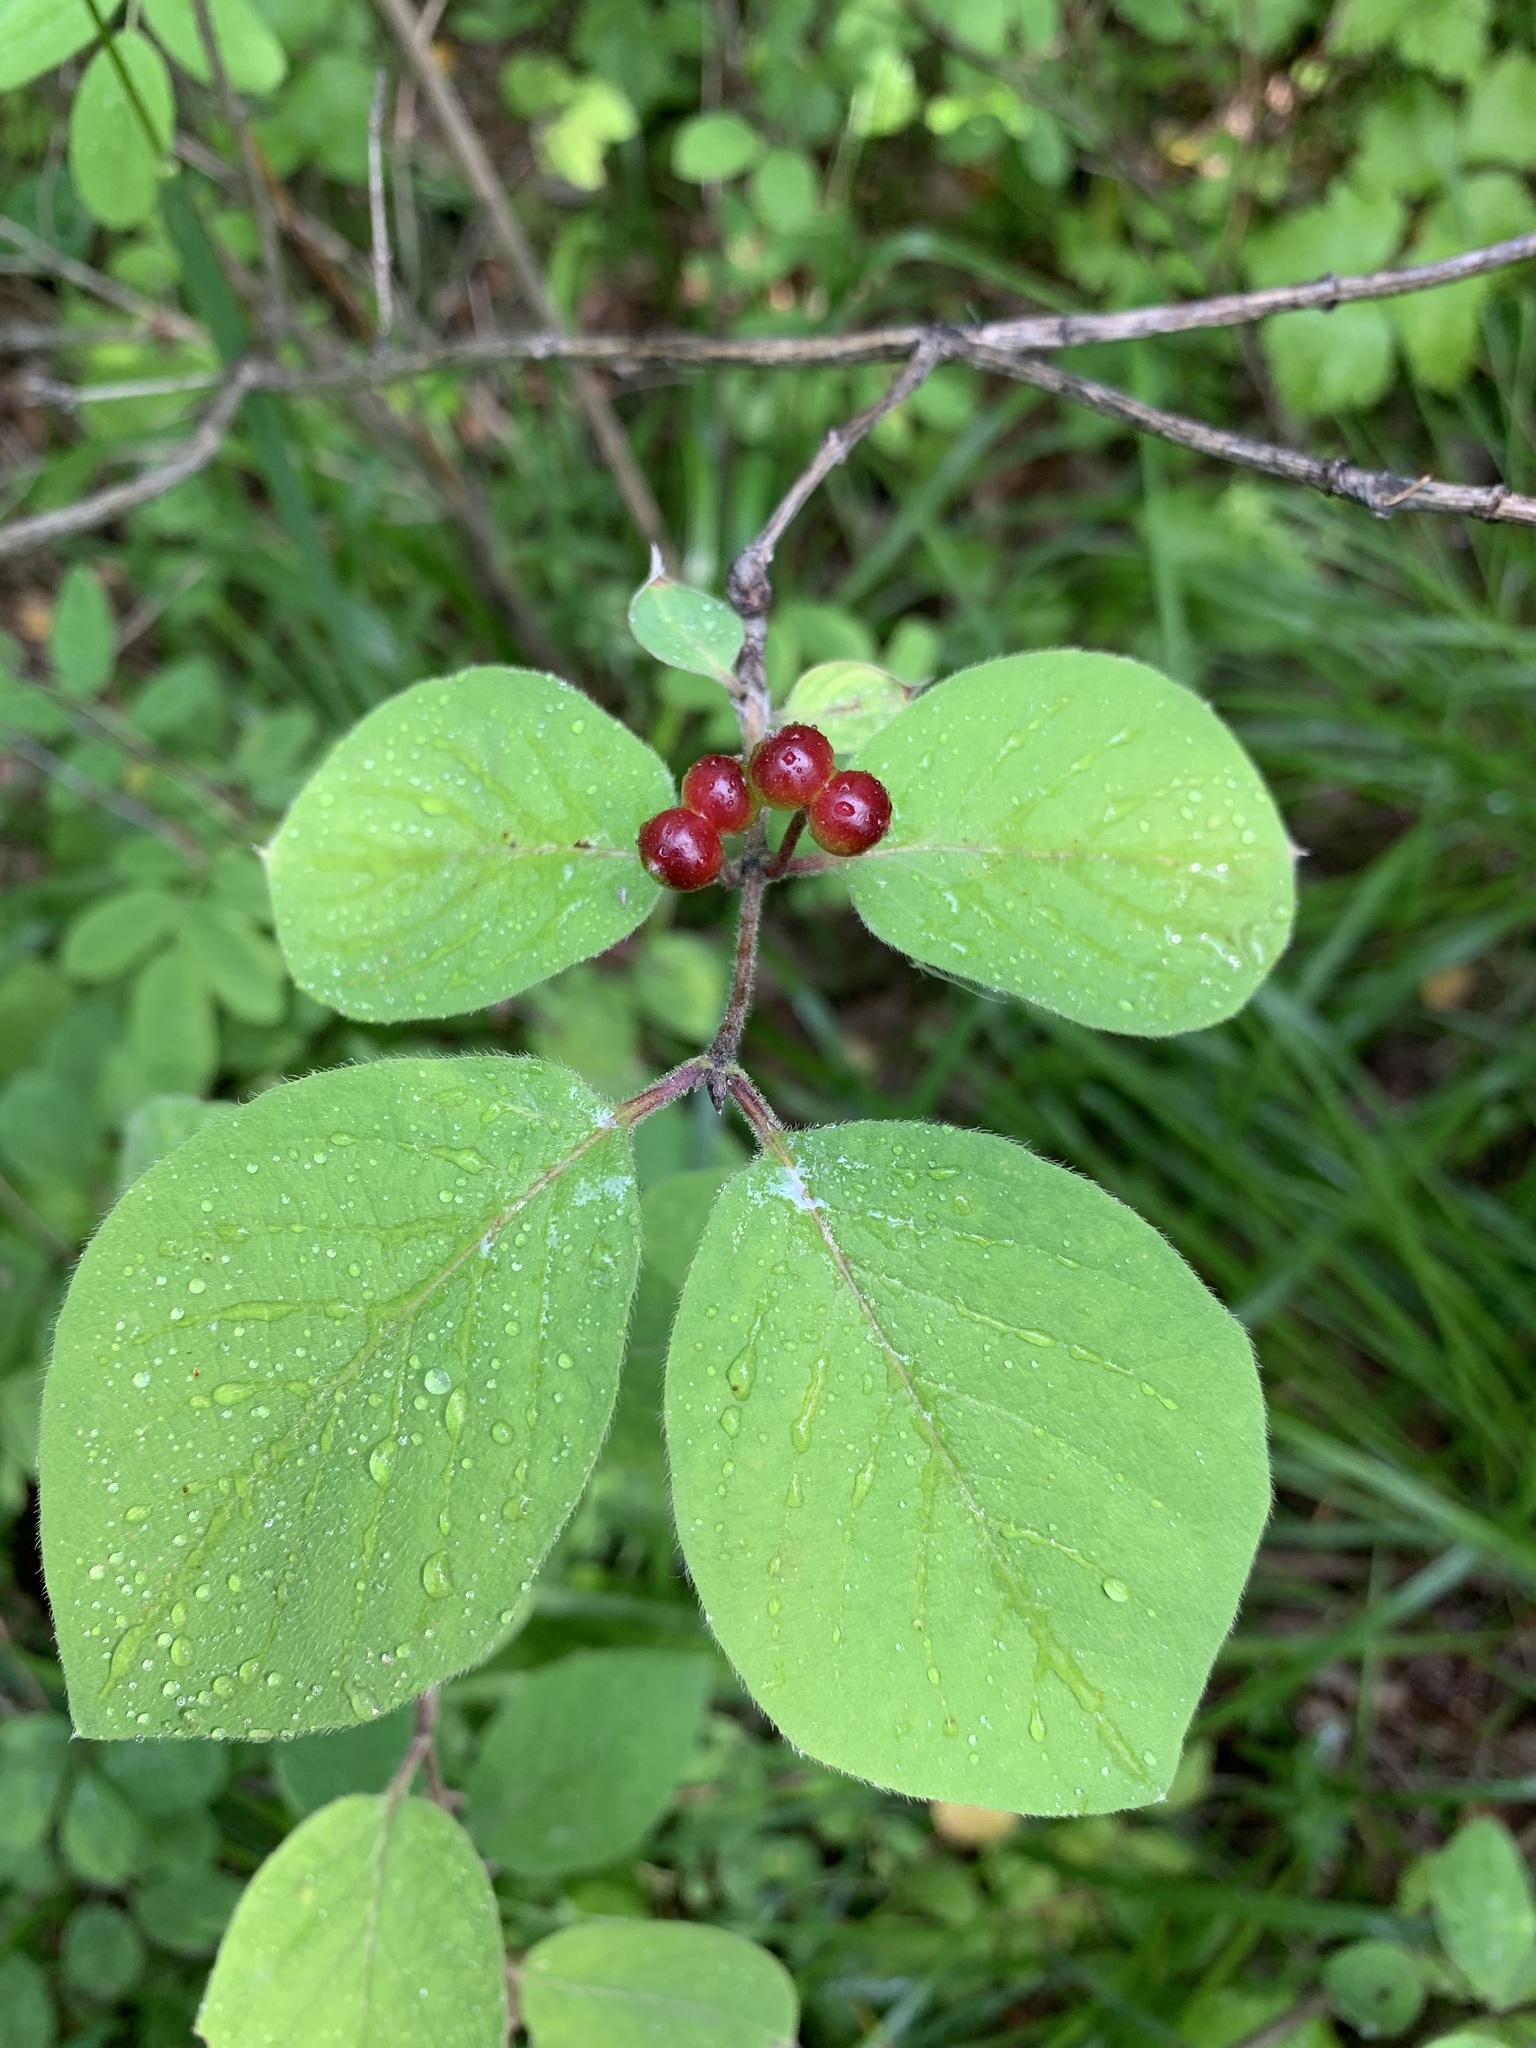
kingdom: Plantae
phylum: Tracheophyta
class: Magnoliopsida
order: Dipsacales
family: Caprifoliaceae
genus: Lonicera
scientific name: Lonicera xylosteum
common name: Fly honeysuckle
